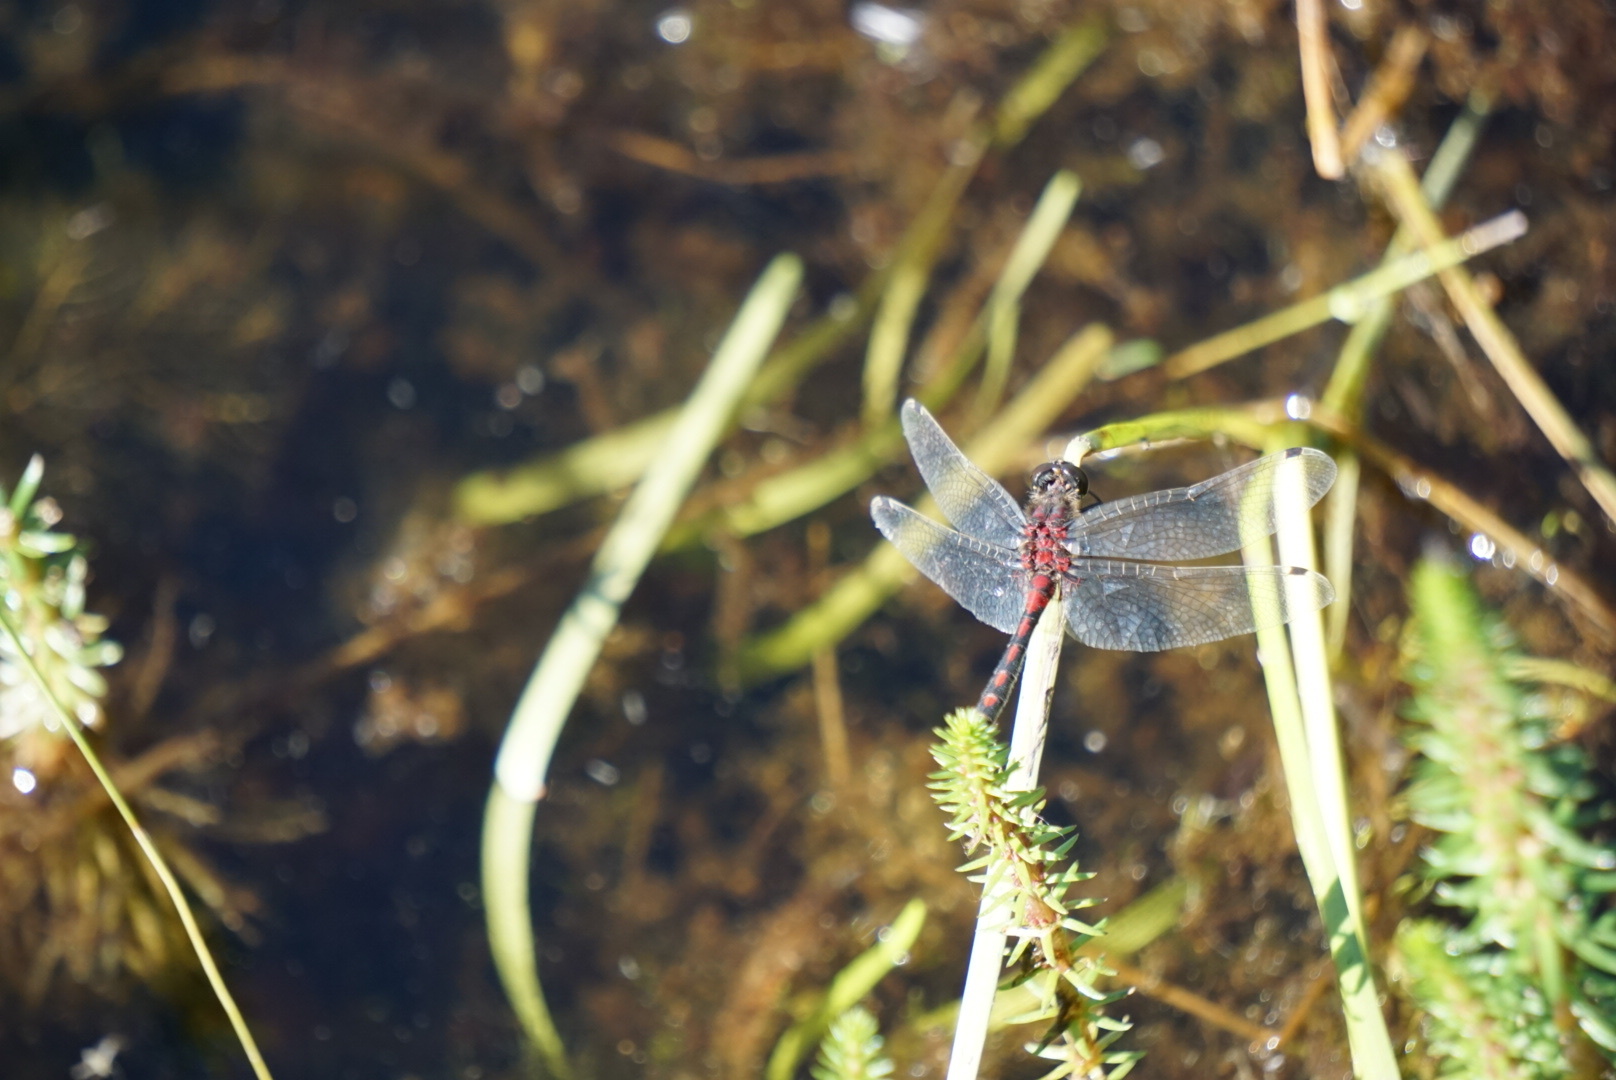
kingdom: Animalia
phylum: Arthropoda
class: Insecta
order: Odonata
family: Libellulidae
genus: Leucorrhinia
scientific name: Leucorrhinia hudsonica
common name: Hudsonian whiteface
